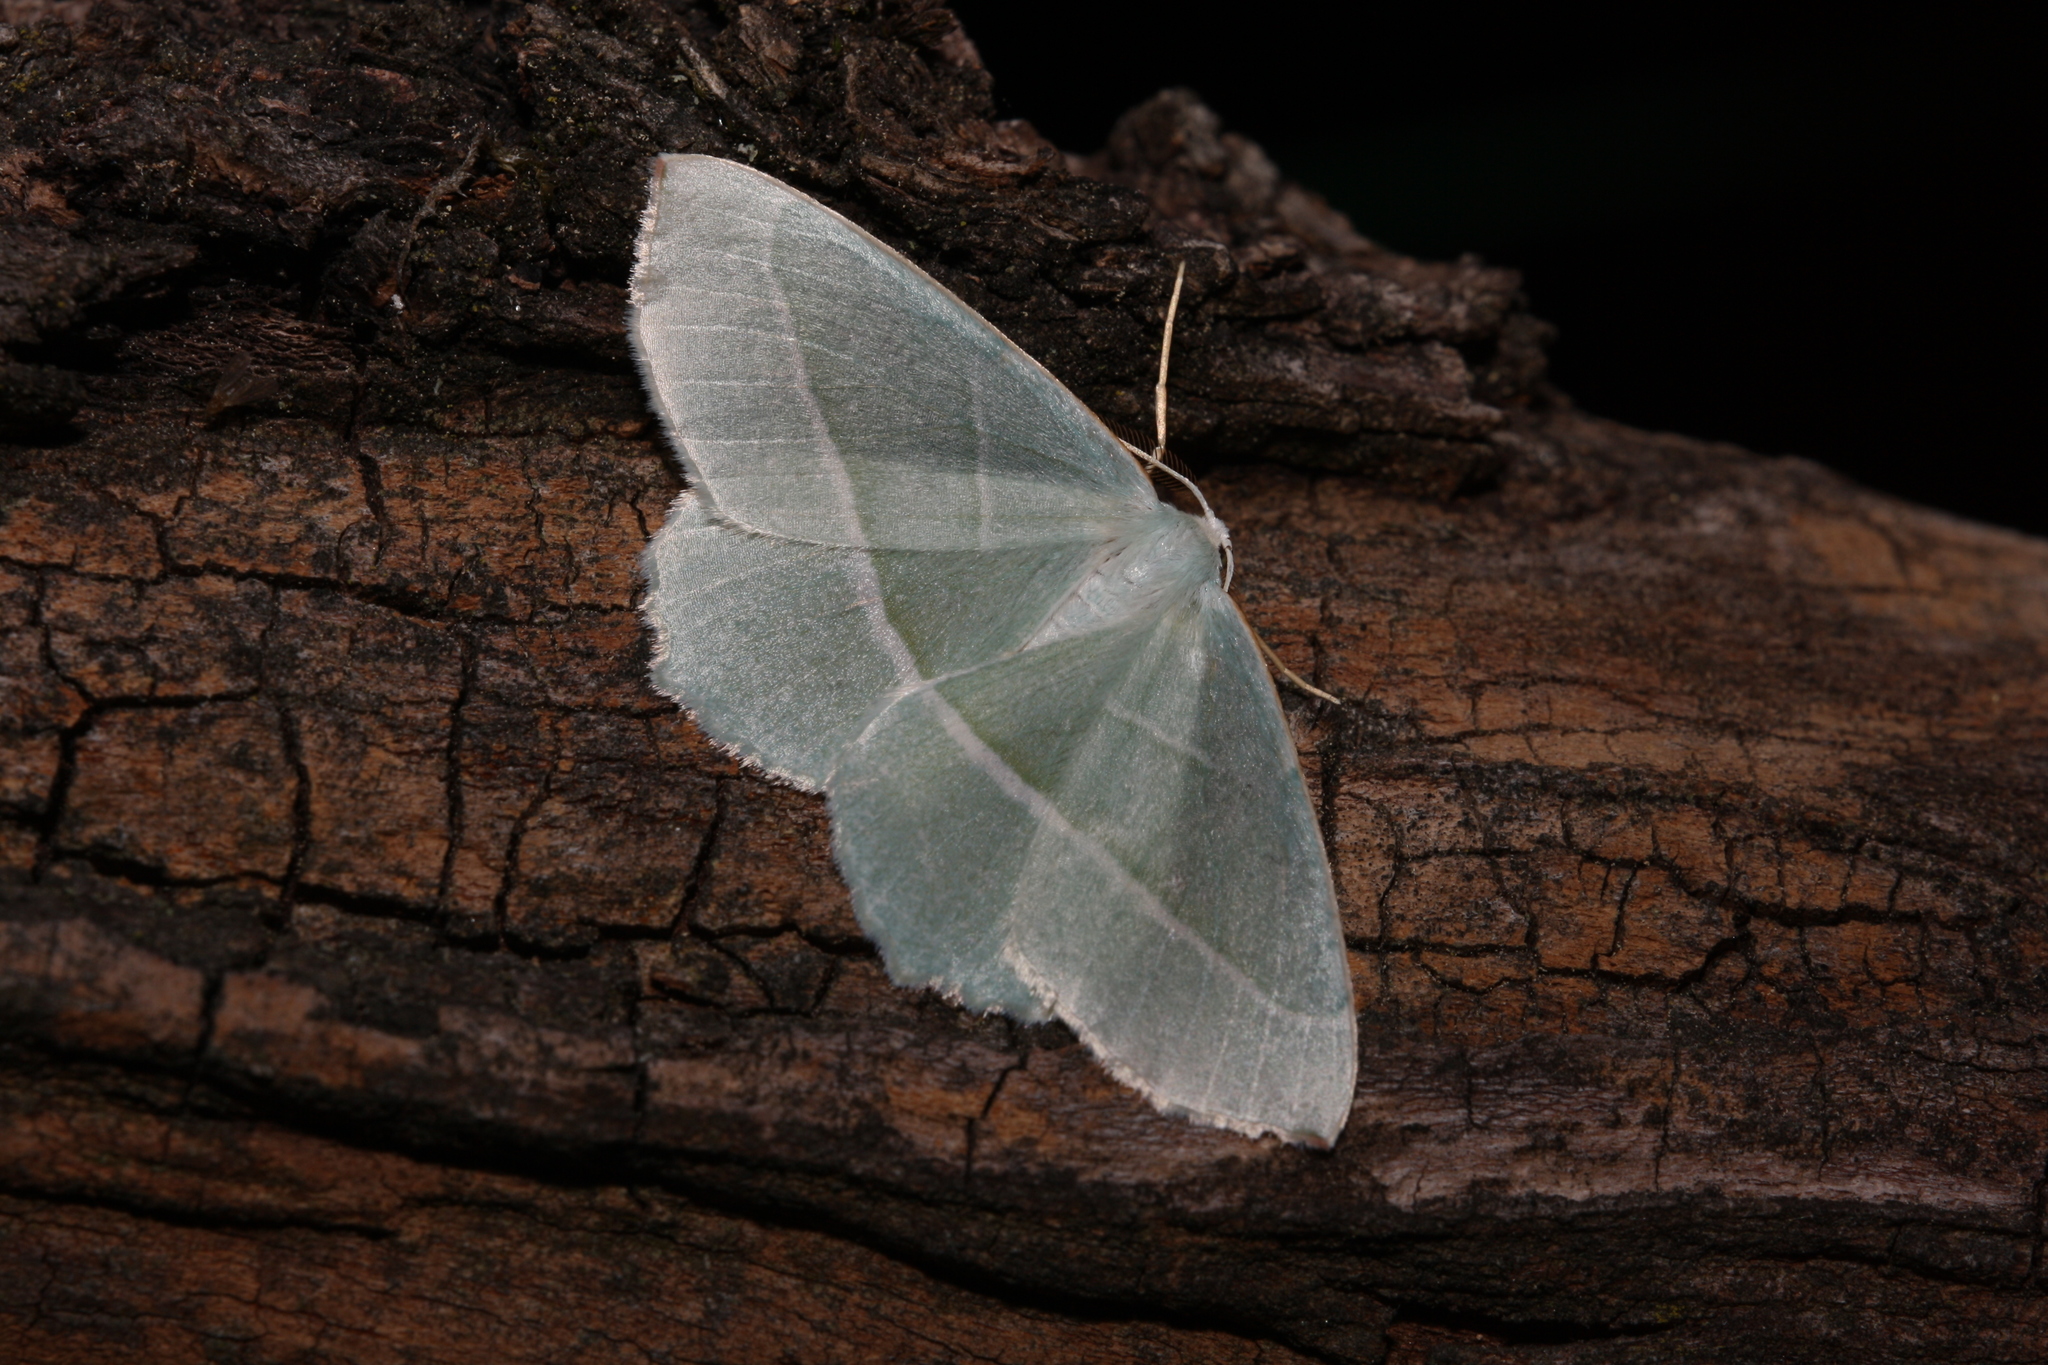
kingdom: Animalia
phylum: Arthropoda
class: Insecta
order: Lepidoptera
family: Geometridae
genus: Campaea
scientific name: Campaea margaritaria
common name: Light emerald
